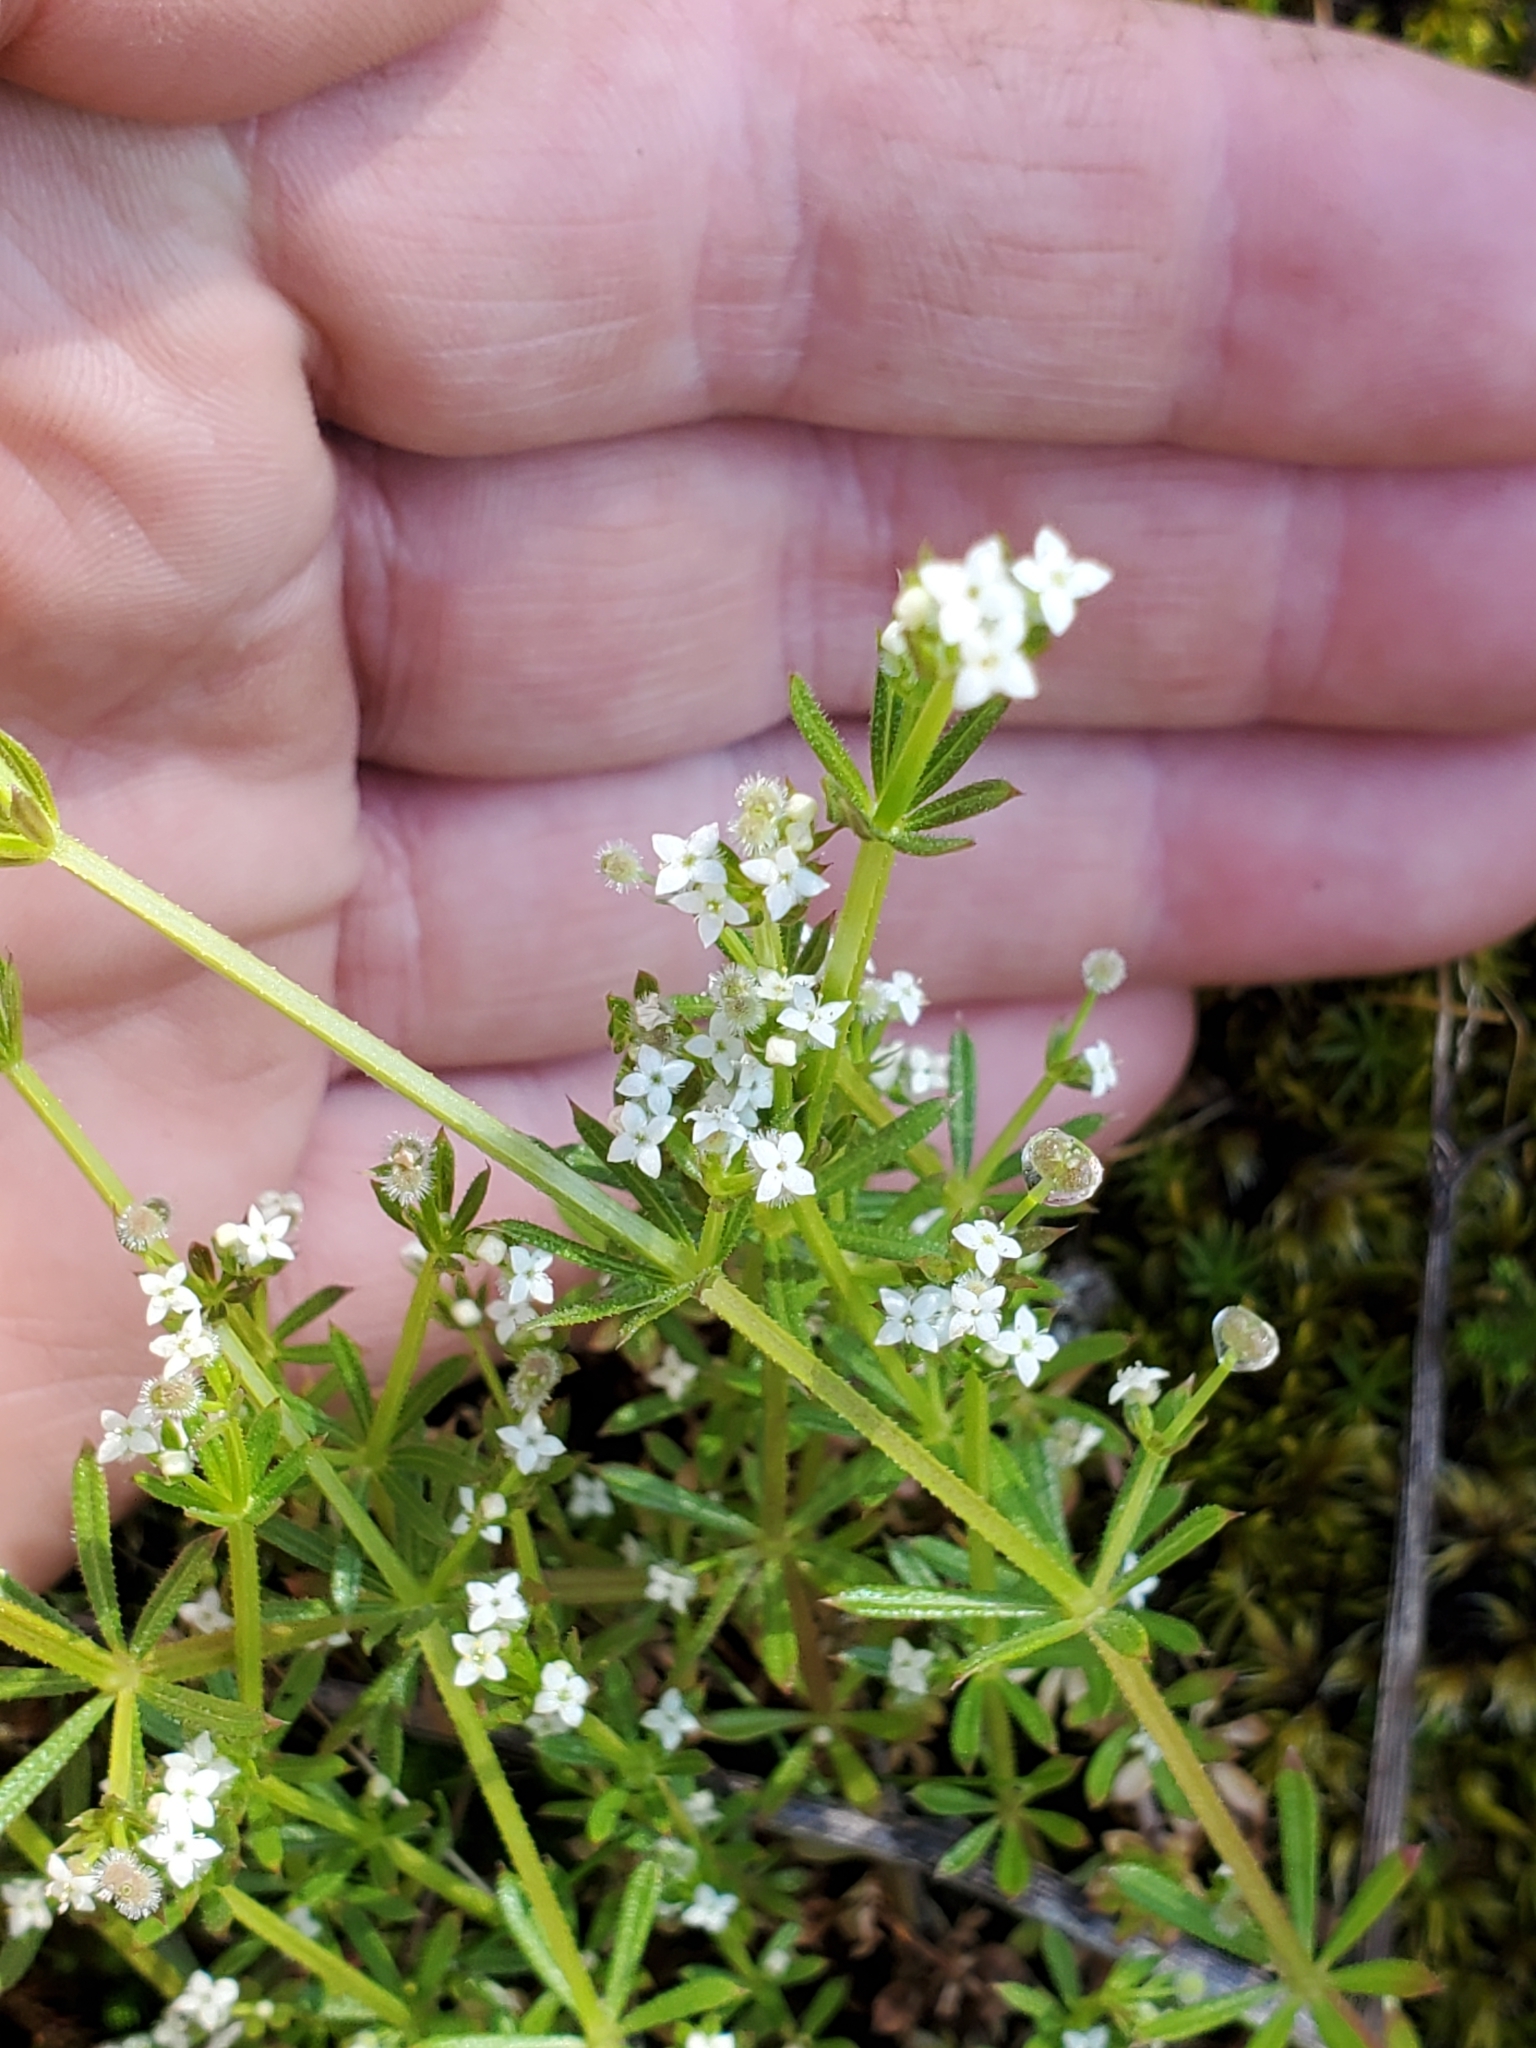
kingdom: Plantae
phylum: Tracheophyta
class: Magnoliopsida
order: Gentianales
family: Rubiaceae
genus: Galium
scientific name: Galium aparine
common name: Cleavers
